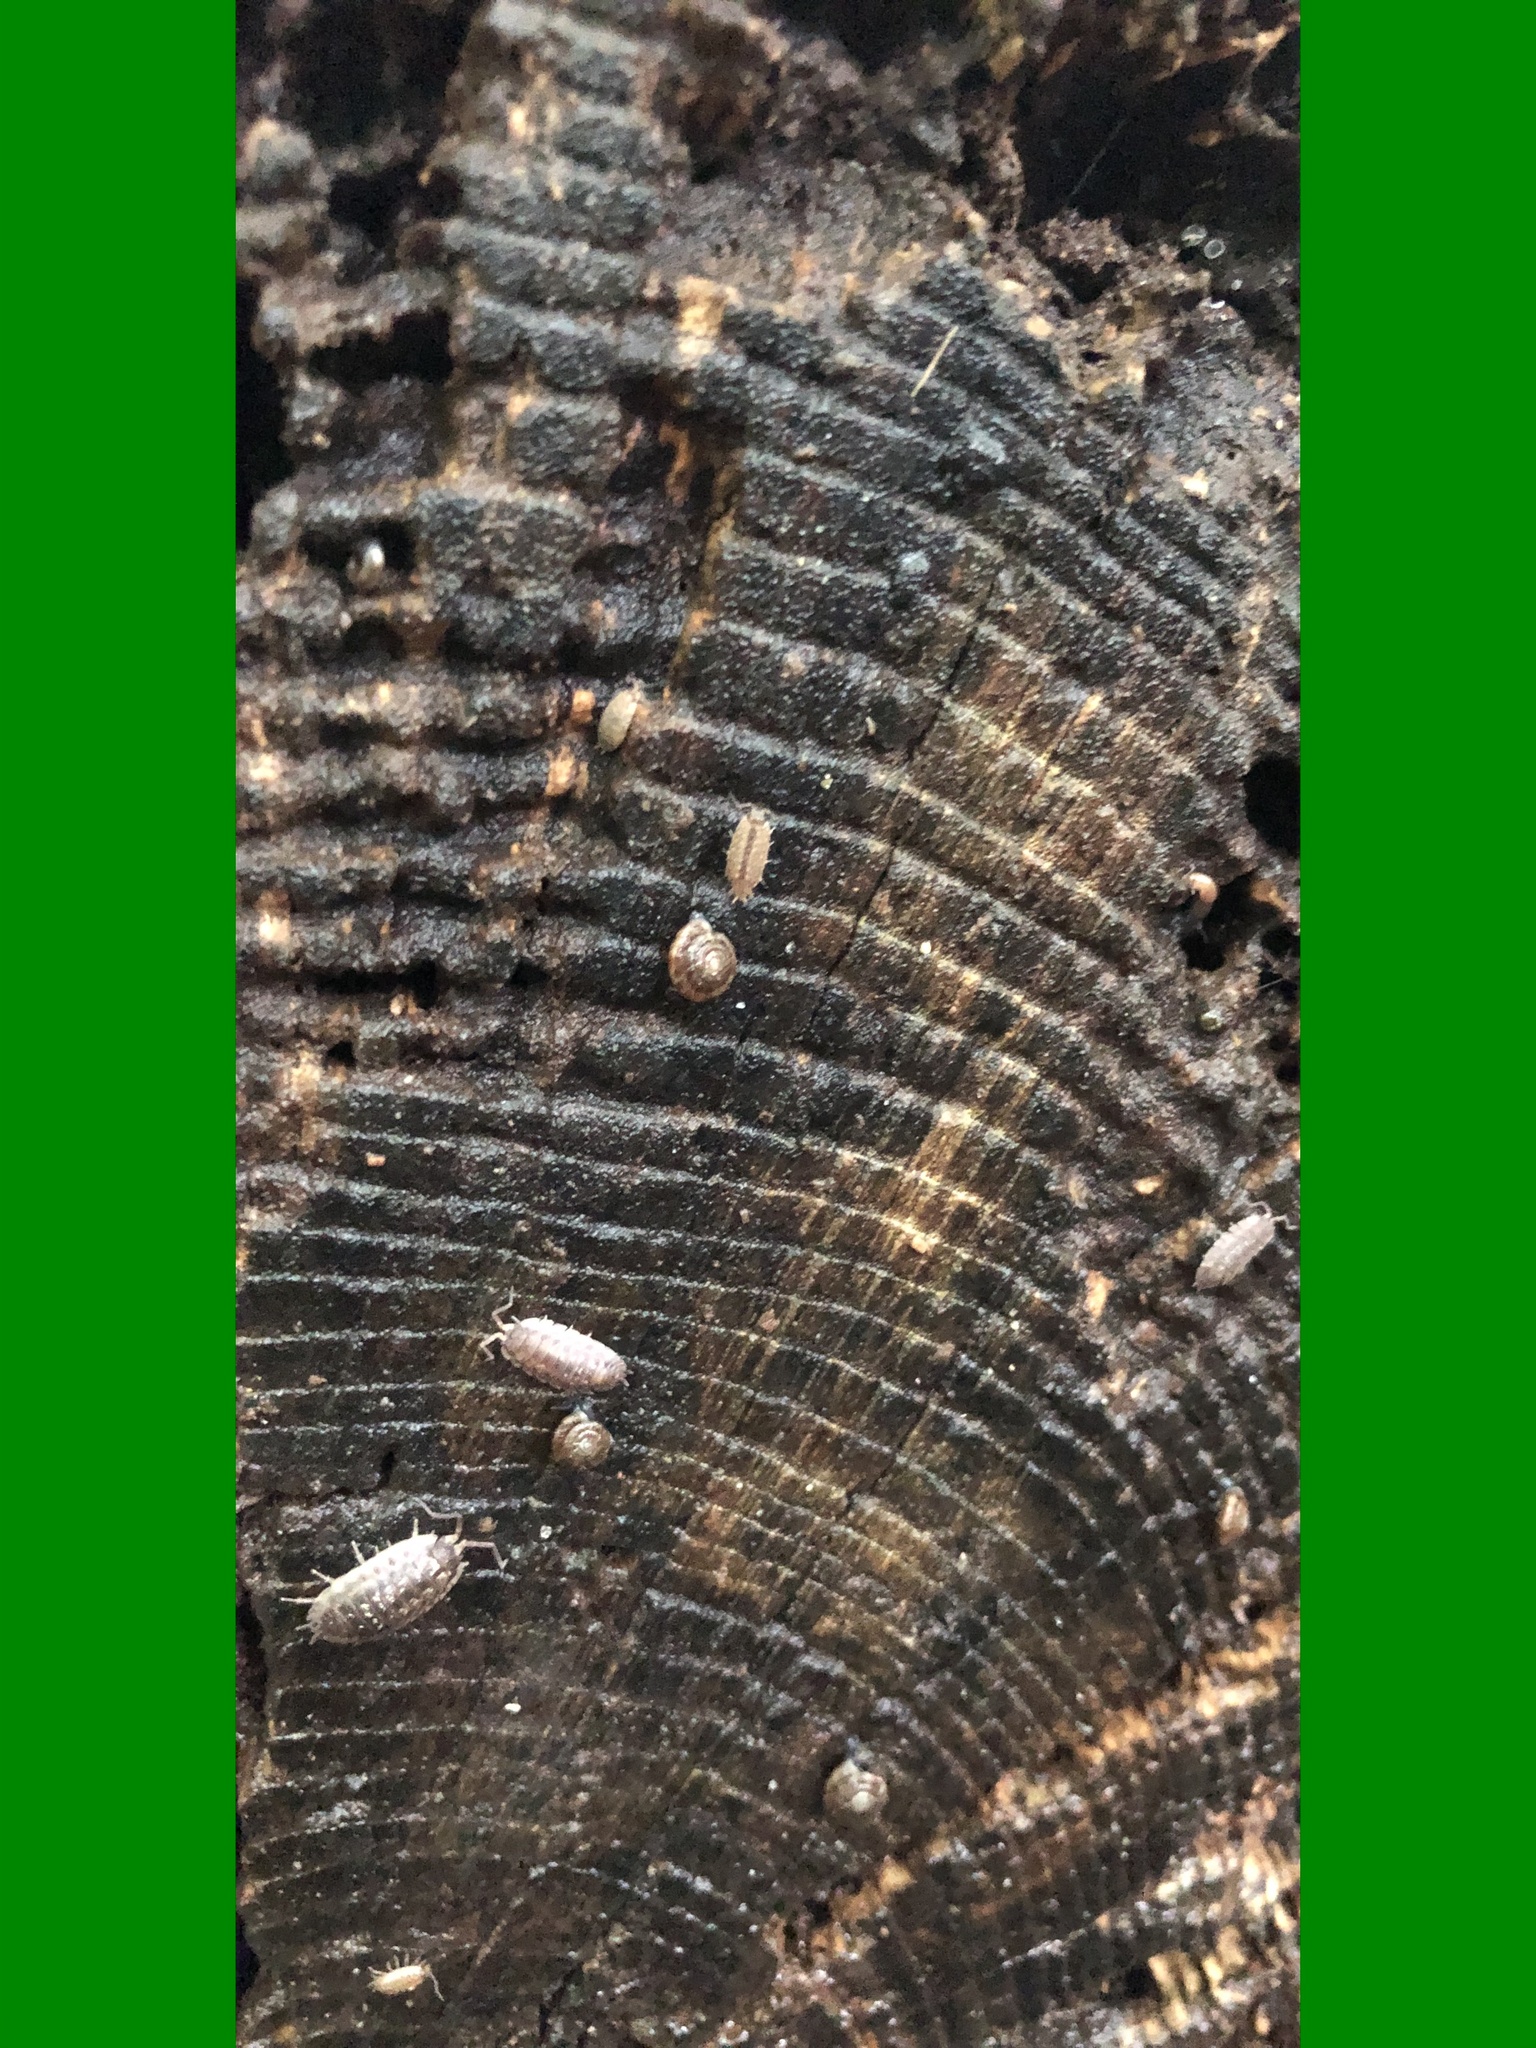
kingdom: Animalia
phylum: Mollusca
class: Gastropoda
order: Stylommatophora
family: Discidae
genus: Discus
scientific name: Discus rotundatus
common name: Rounded snail
